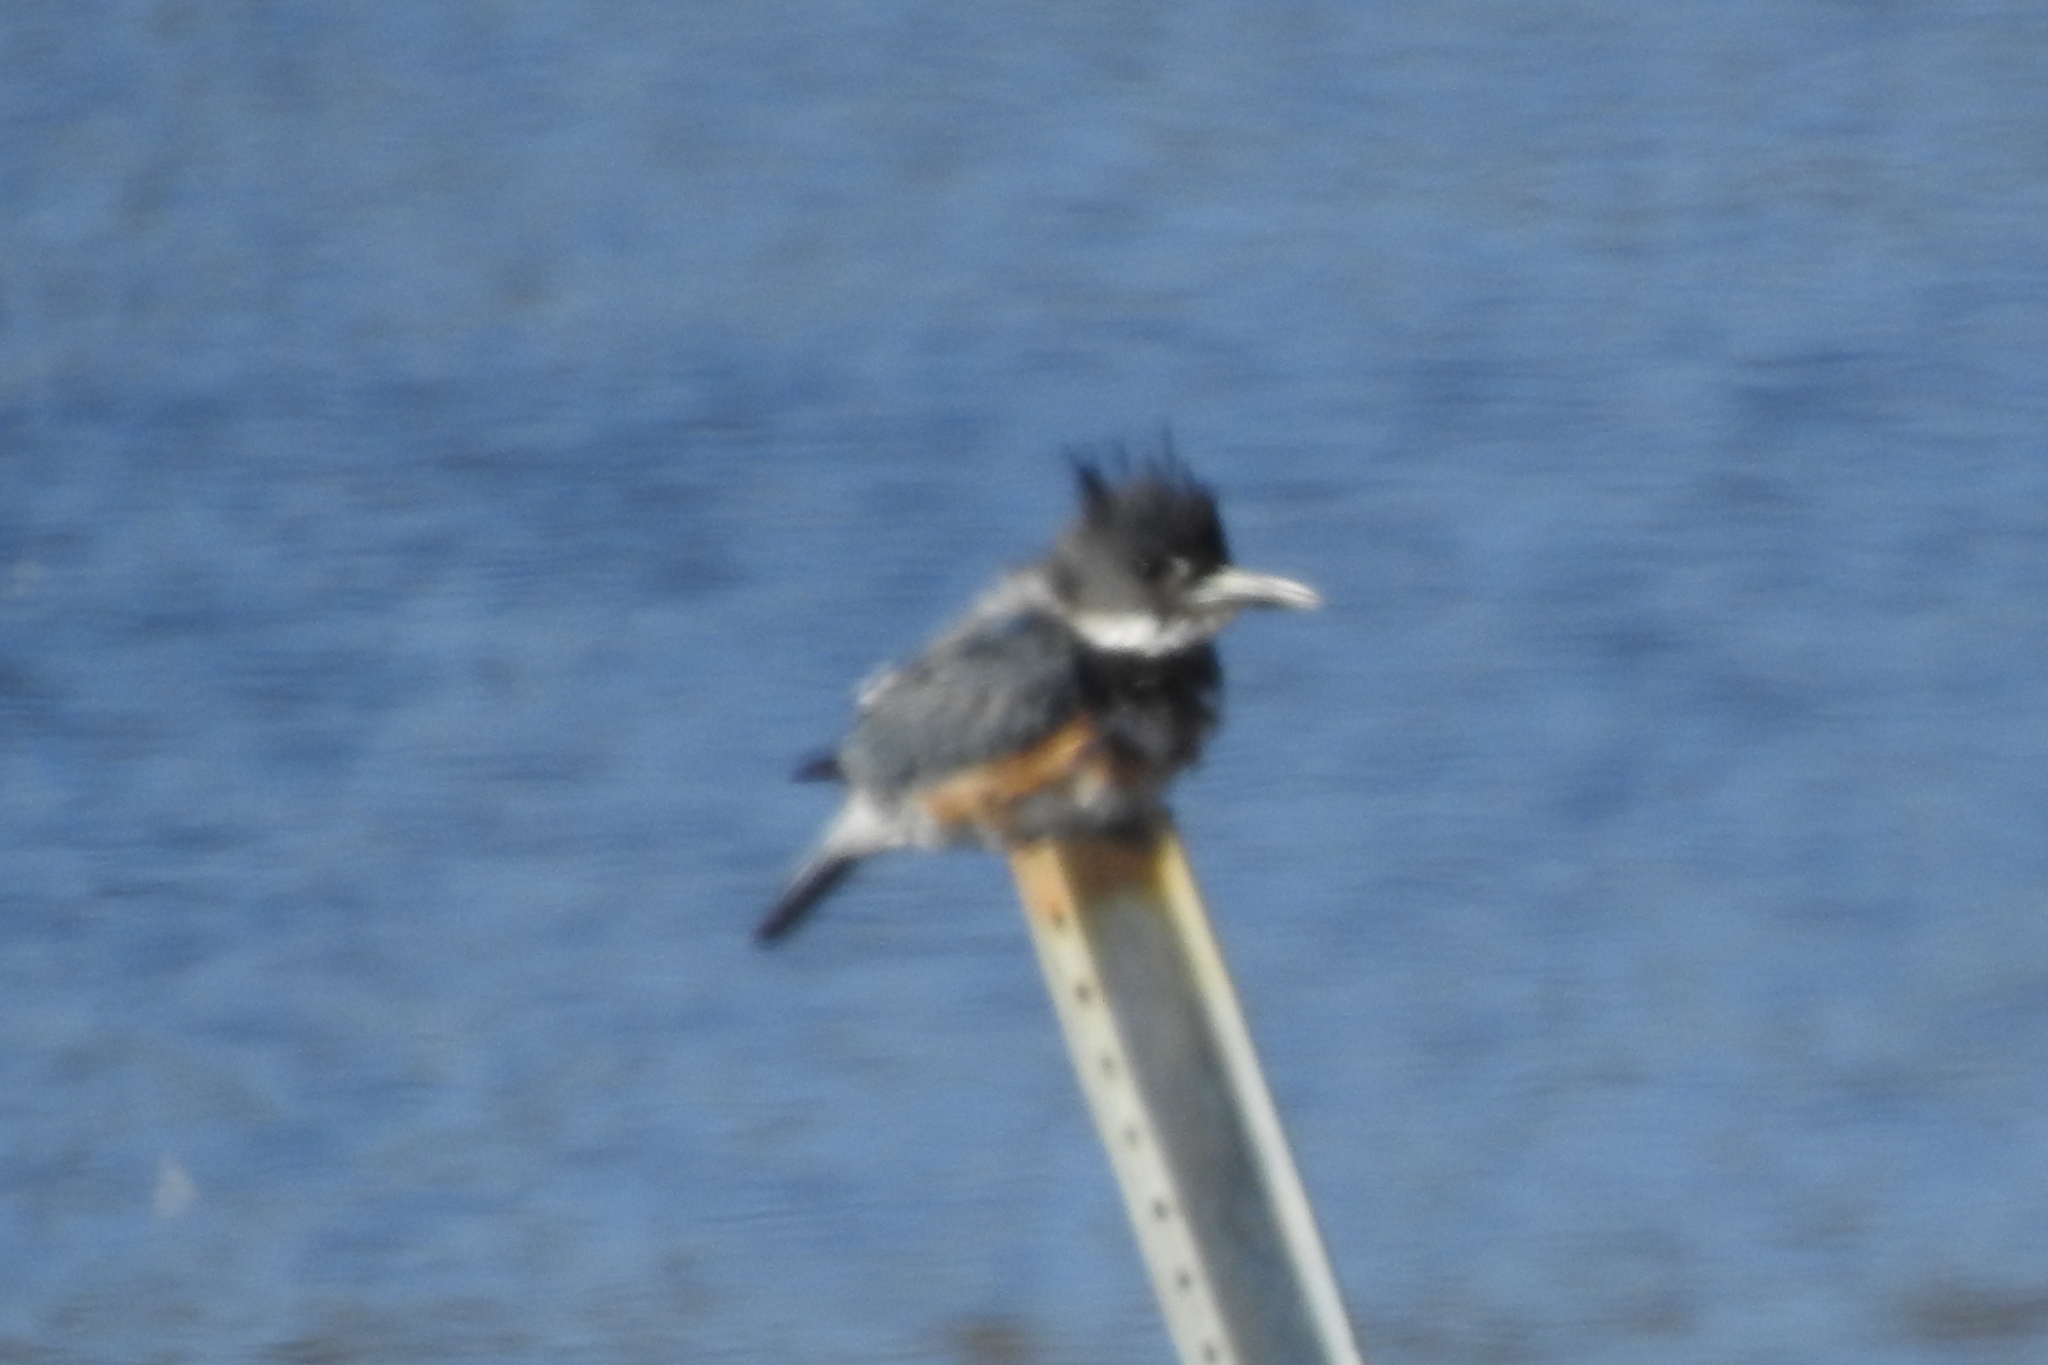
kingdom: Animalia
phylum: Chordata
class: Aves
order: Coraciiformes
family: Alcedinidae
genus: Megaceryle
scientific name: Megaceryle alcyon
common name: Belted kingfisher
